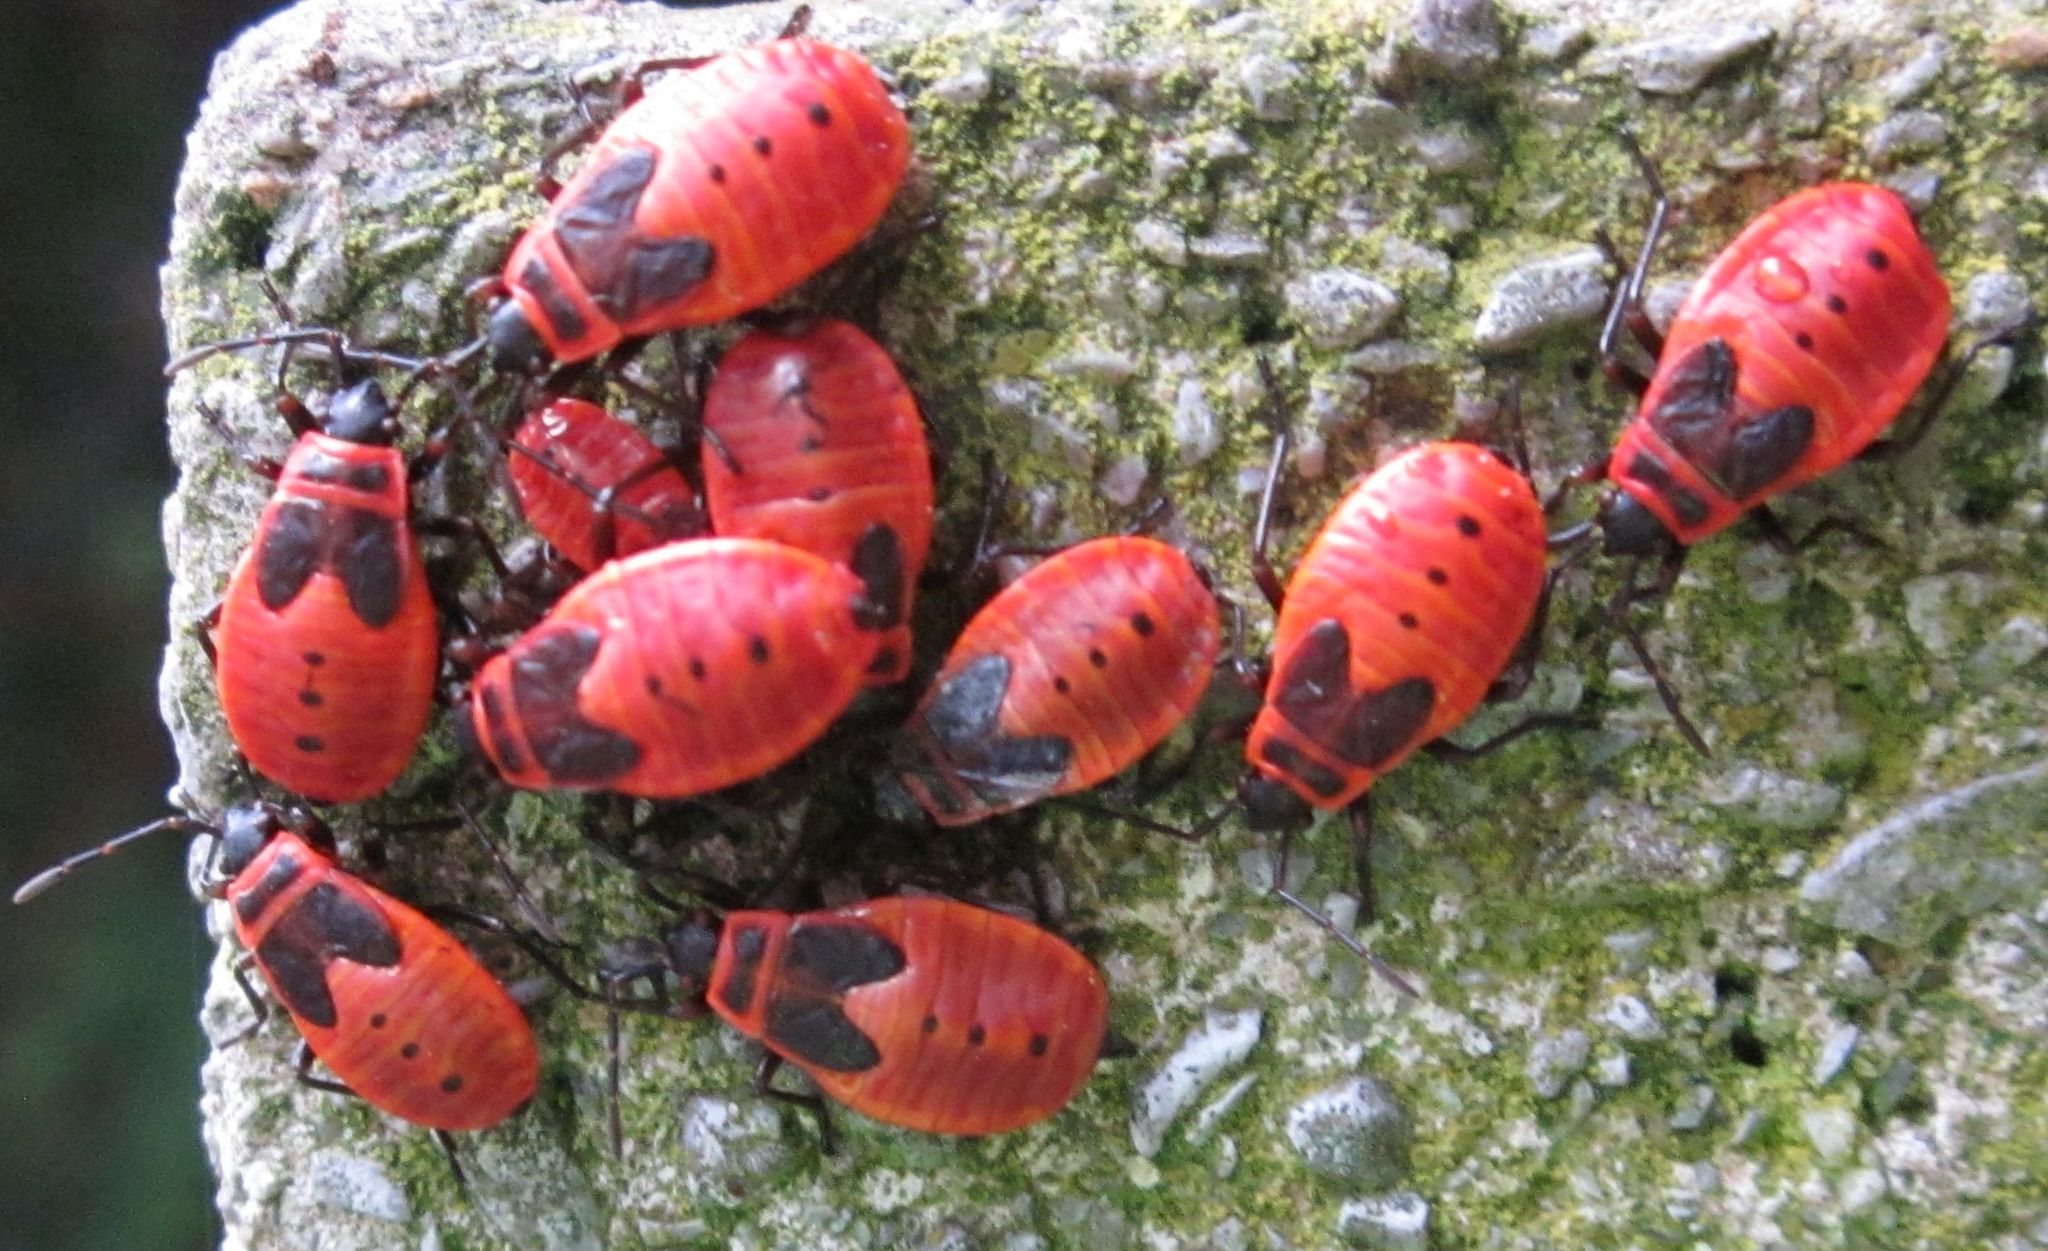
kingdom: Animalia
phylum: Arthropoda
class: Insecta
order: Hemiptera
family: Pyrrhocoridae
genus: Pyrrhocoris
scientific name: Pyrrhocoris apterus
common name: Firebug
